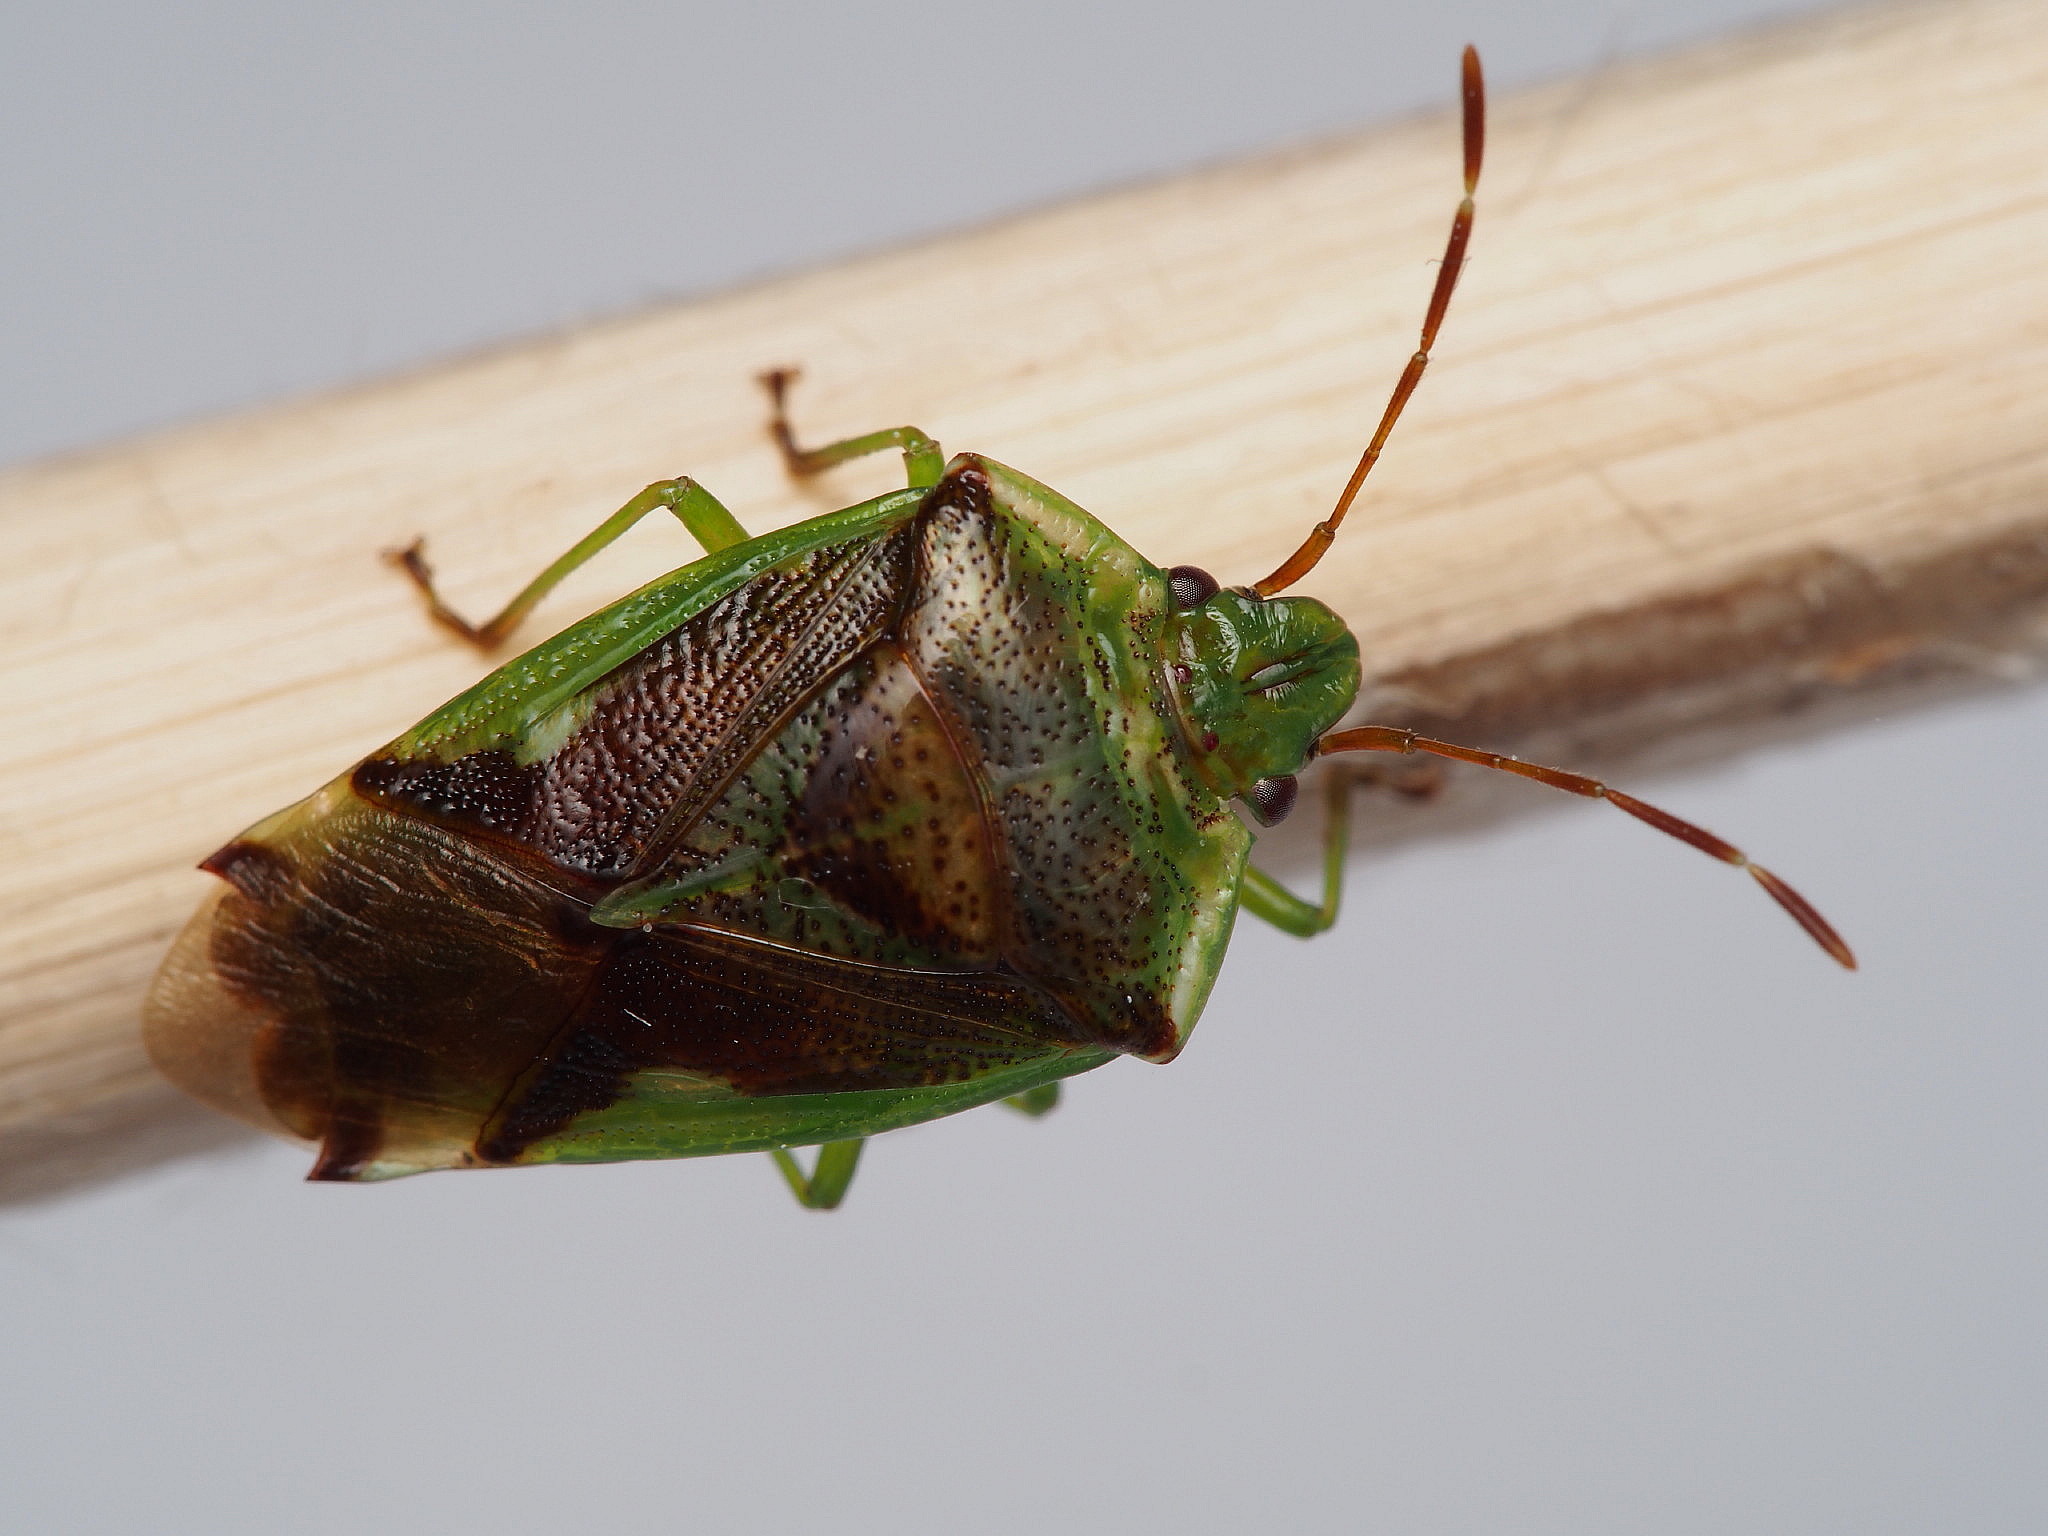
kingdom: Animalia
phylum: Arthropoda
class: Insecta
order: Hemiptera
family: Acanthosomatidae
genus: Oncacontias
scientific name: Oncacontias vittatus
